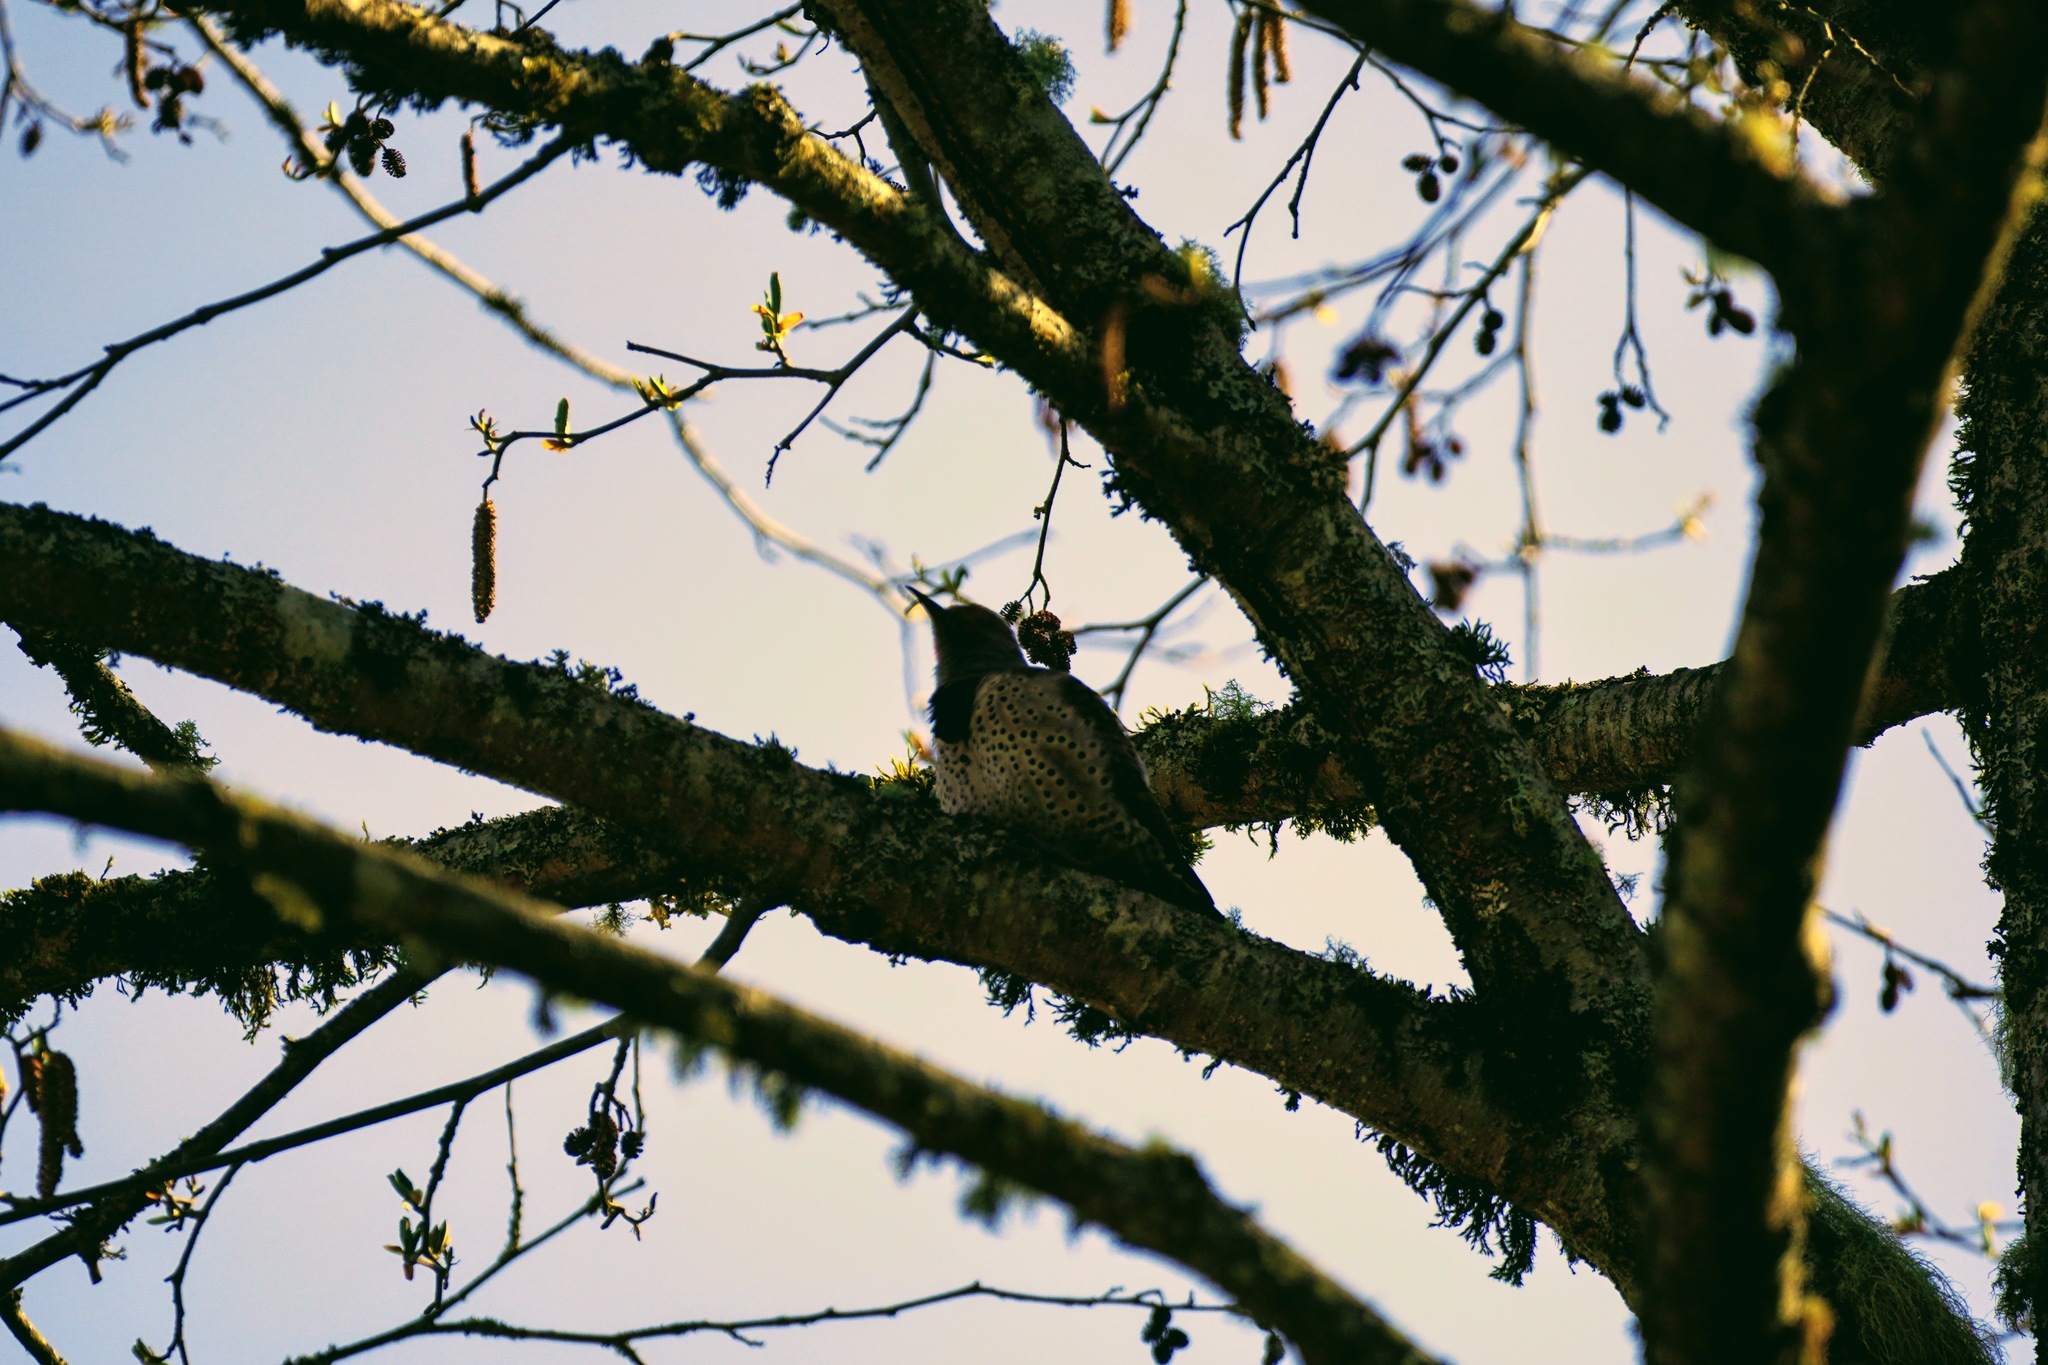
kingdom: Animalia
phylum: Chordata
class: Aves
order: Piciformes
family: Picidae
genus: Colaptes
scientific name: Colaptes auratus
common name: Northern flicker
